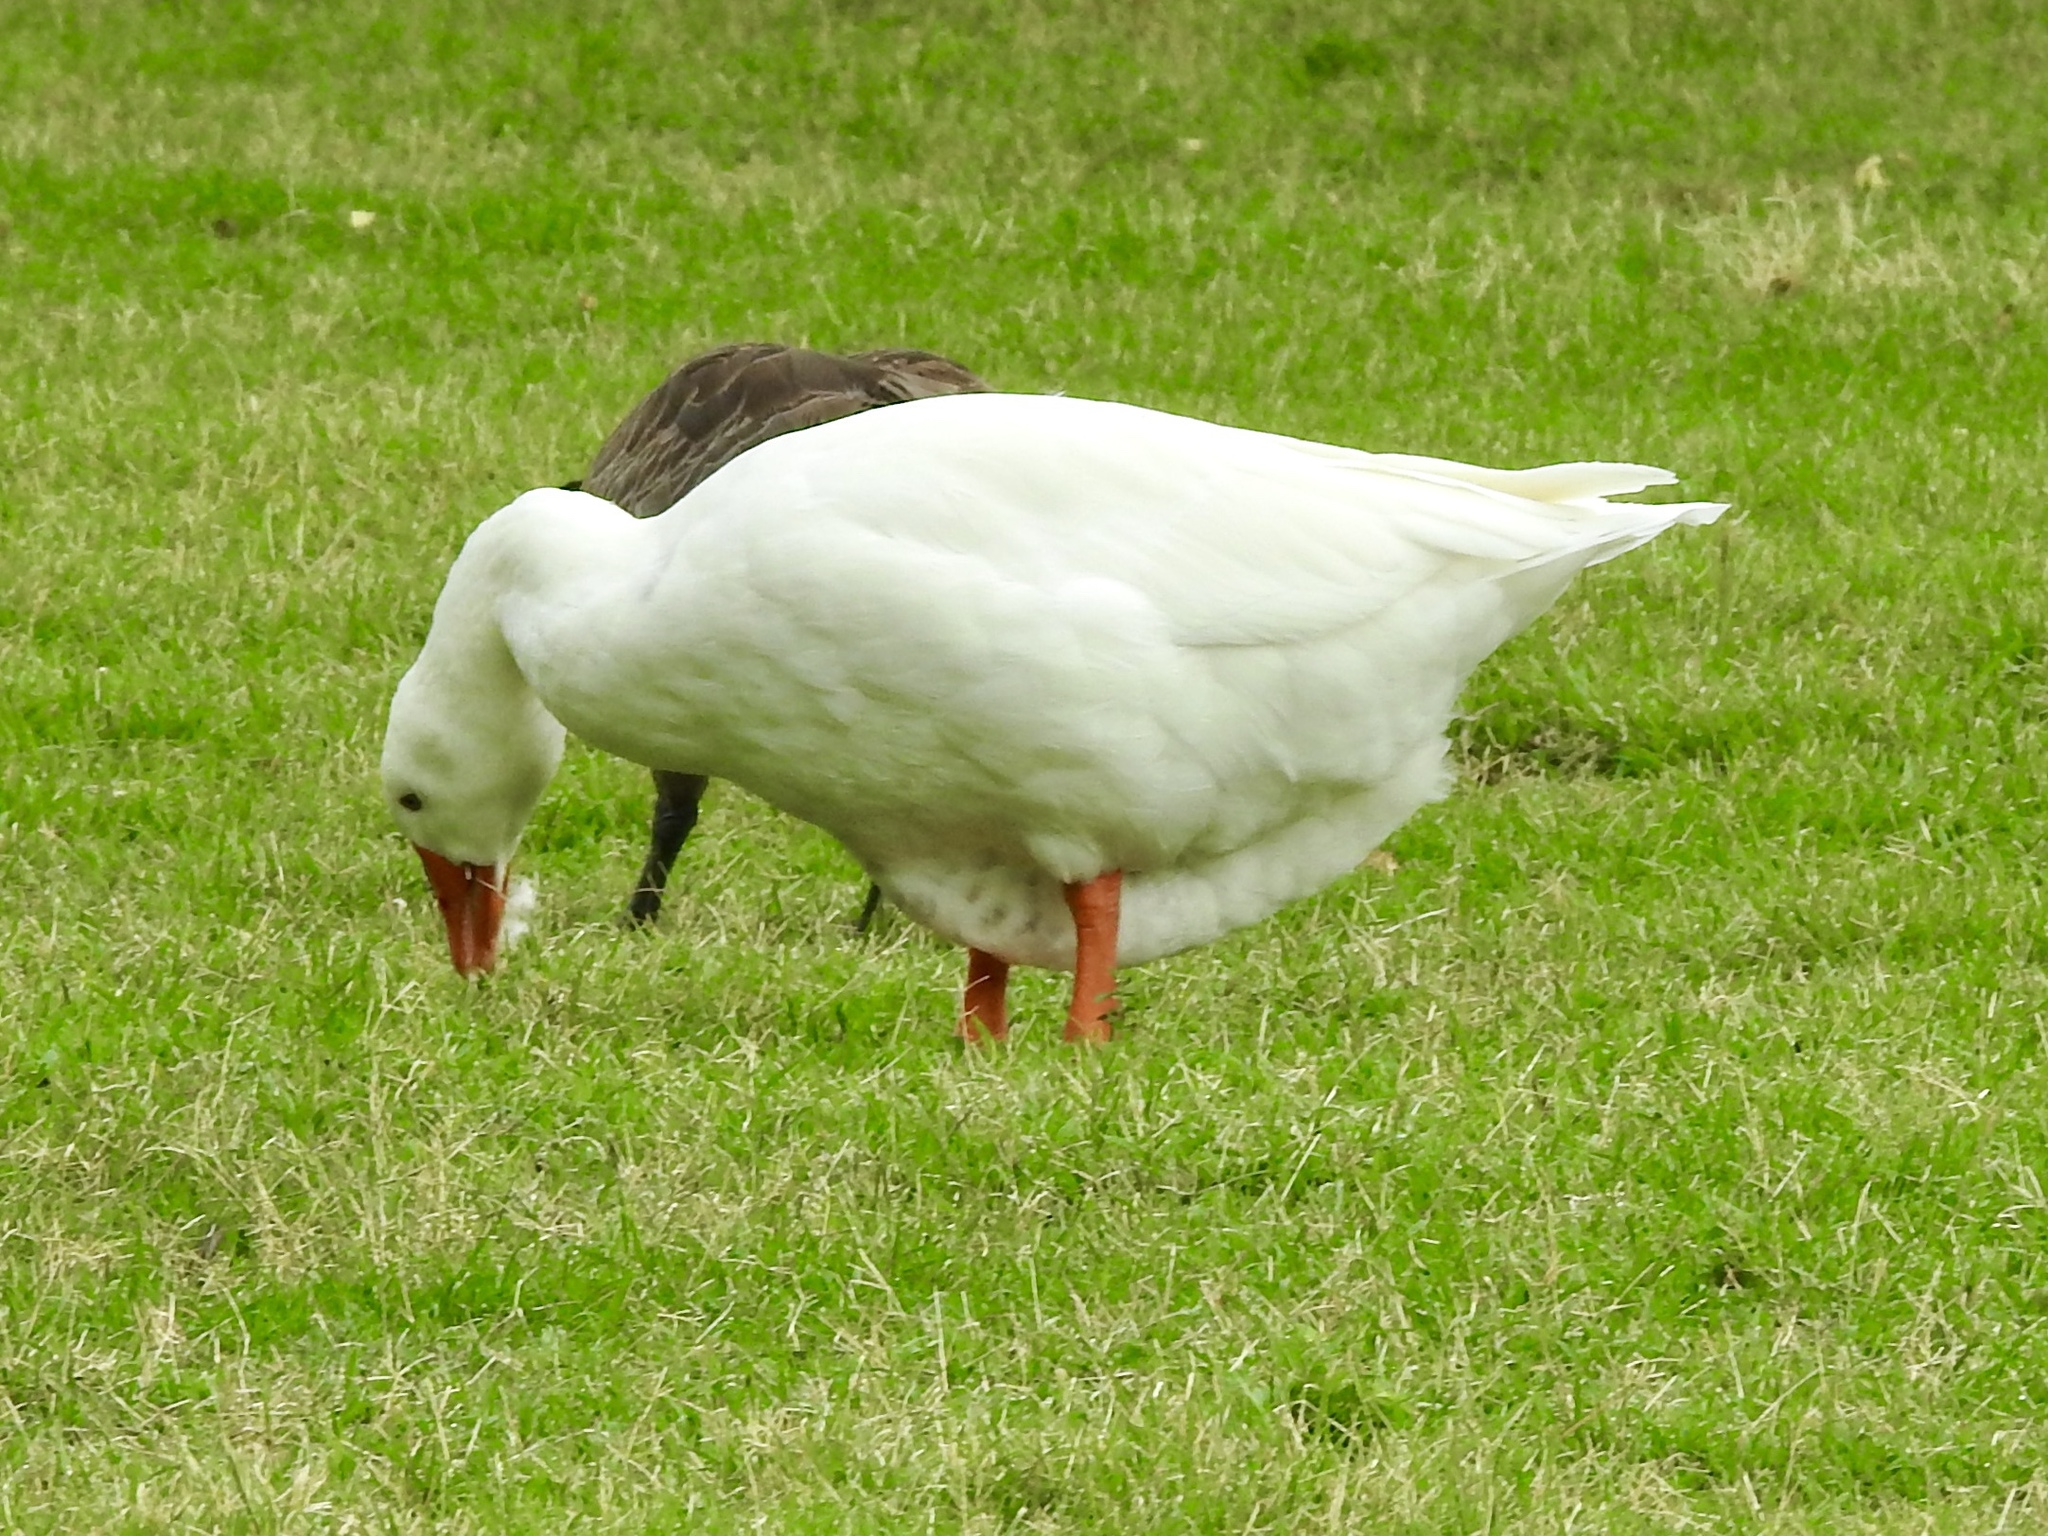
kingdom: Animalia
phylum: Chordata
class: Aves
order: Anseriformes
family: Anatidae
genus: Anser
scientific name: Anser anser
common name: Greylag goose
